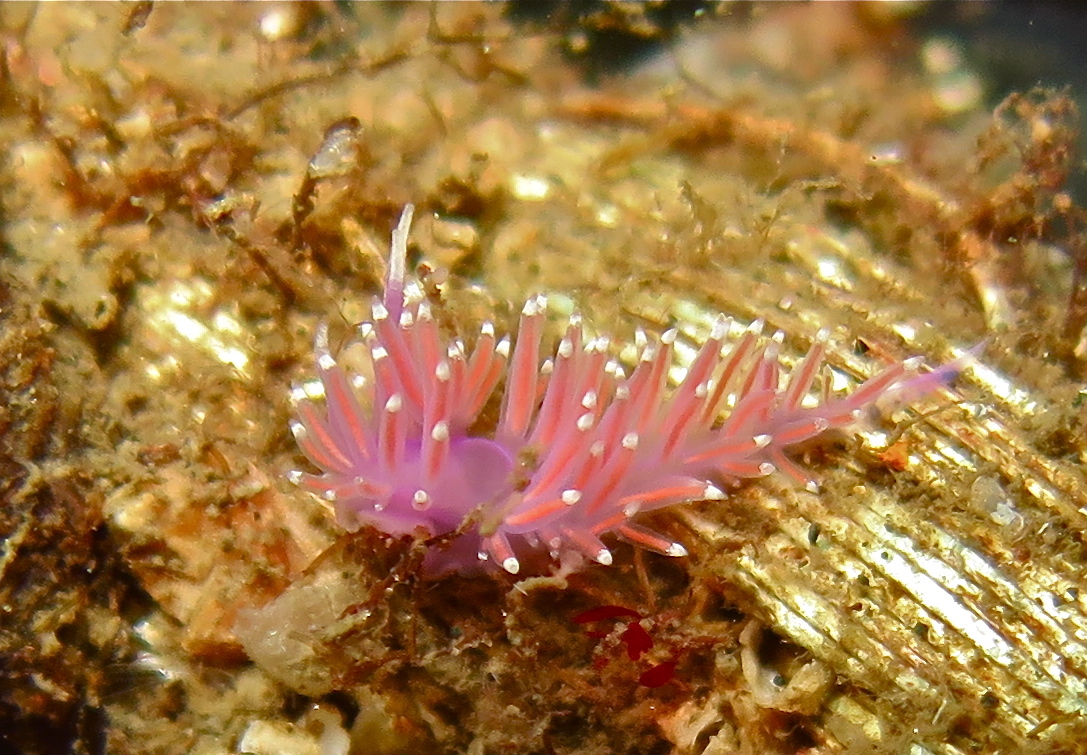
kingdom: Animalia
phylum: Mollusca
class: Gastropoda
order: Nudibranchia
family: Flabellinidae
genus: Edmundsella
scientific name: Edmundsella pedata
